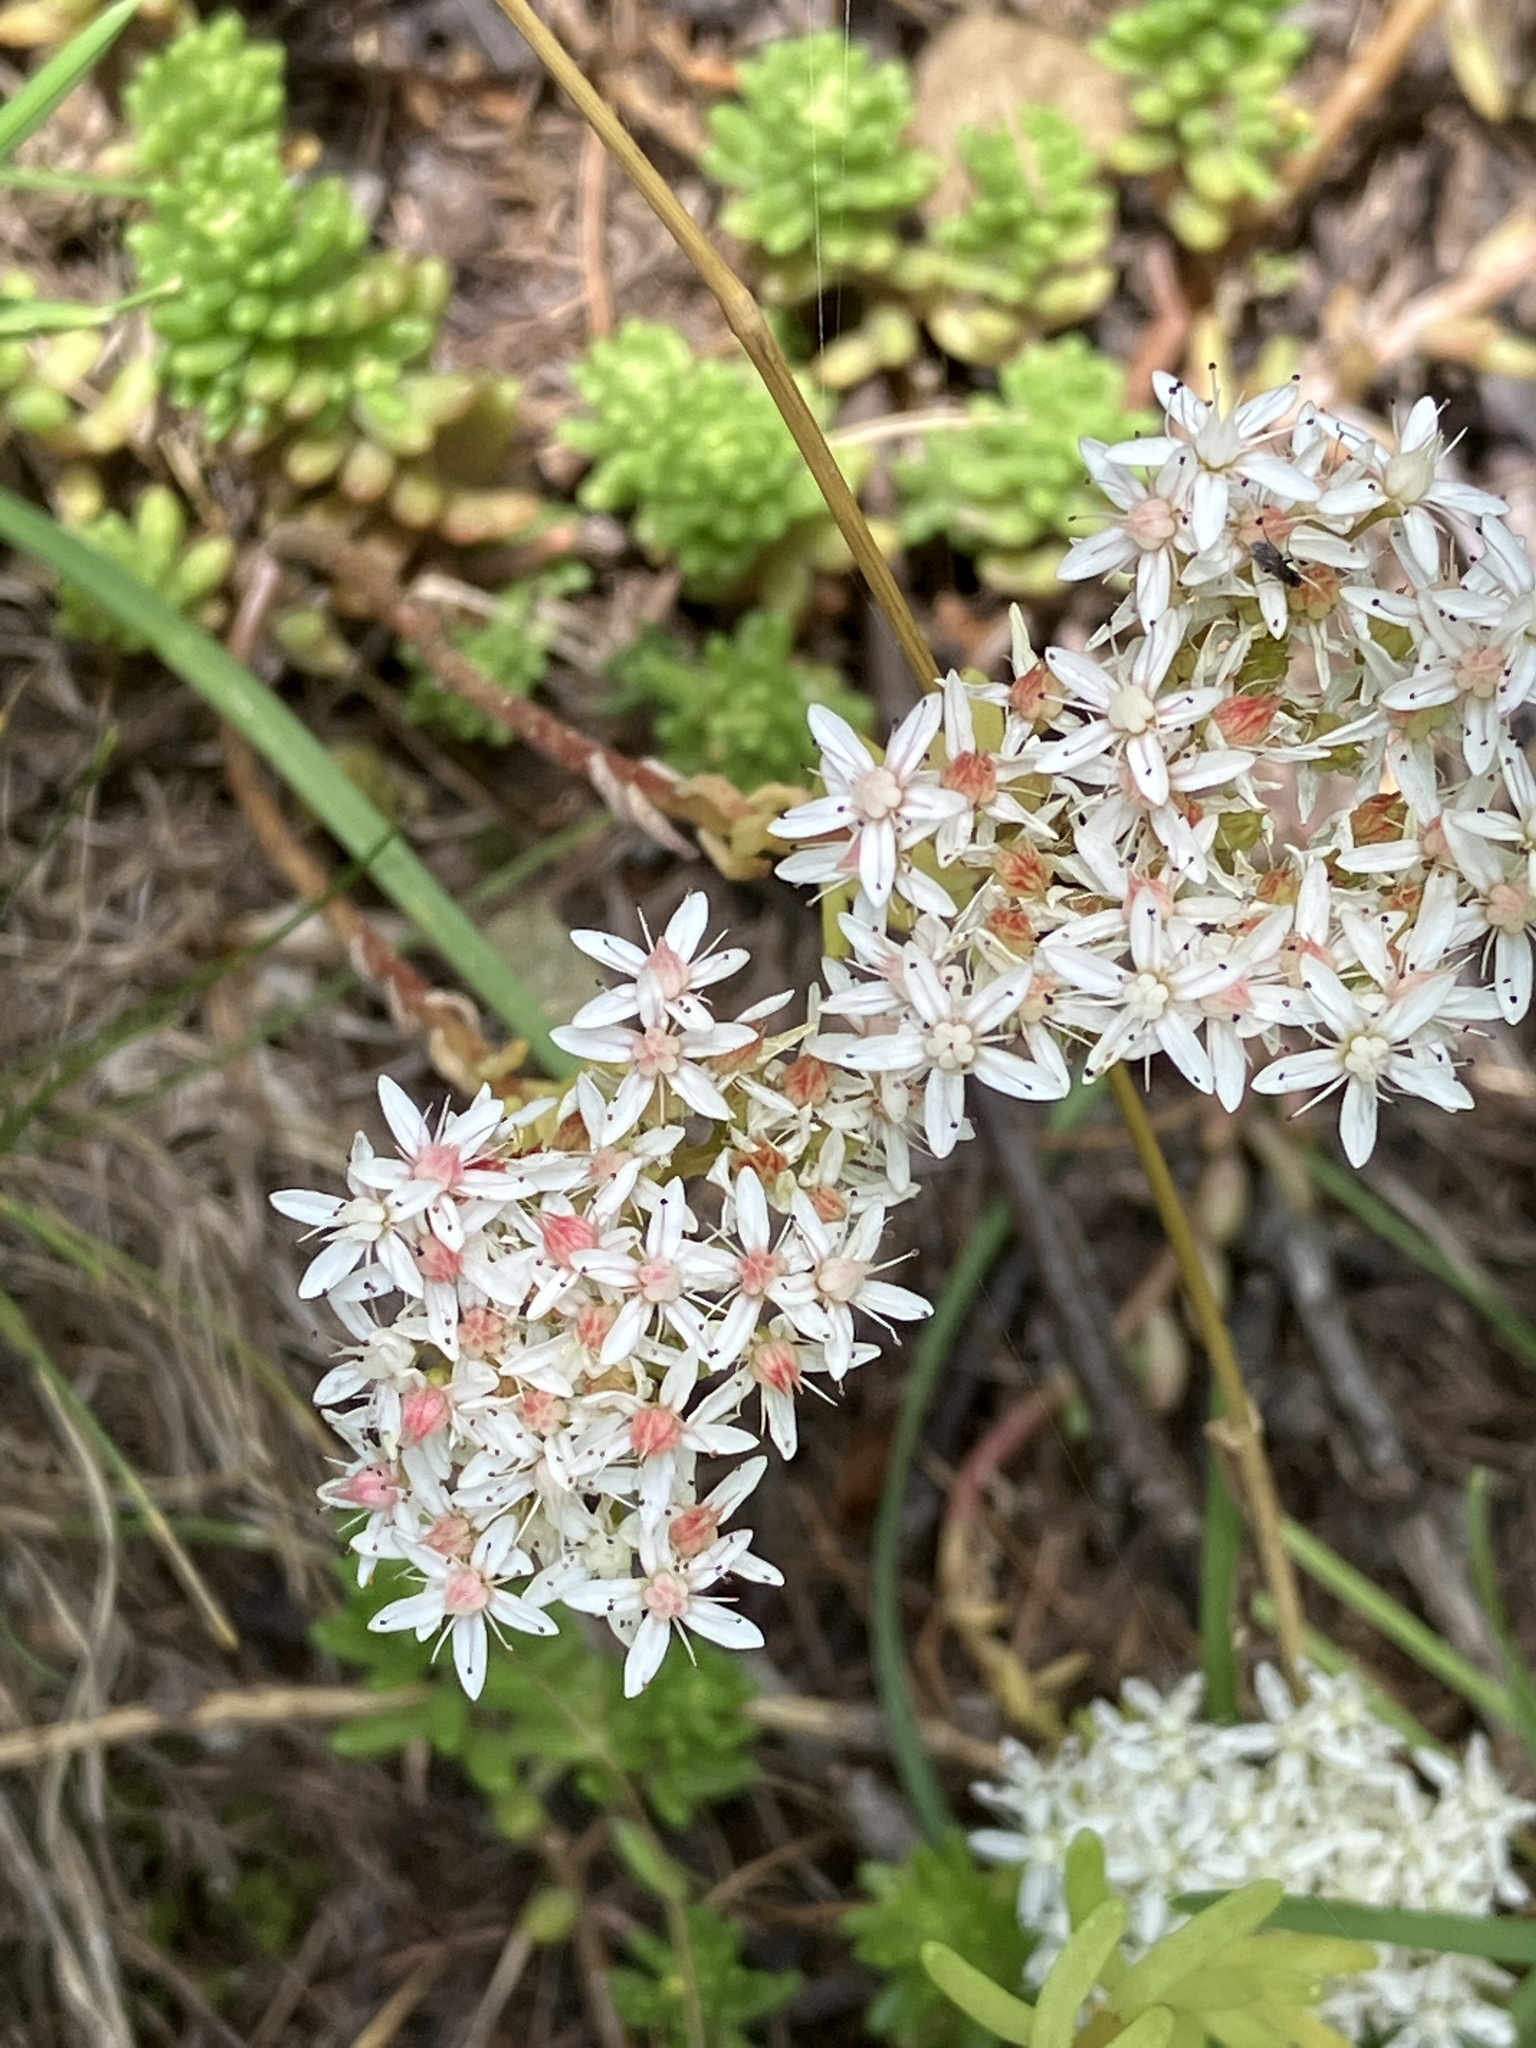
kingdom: Plantae
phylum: Tracheophyta
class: Magnoliopsida
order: Saxifragales
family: Crassulaceae
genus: Sedum
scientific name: Sedum album
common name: White stonecrop
